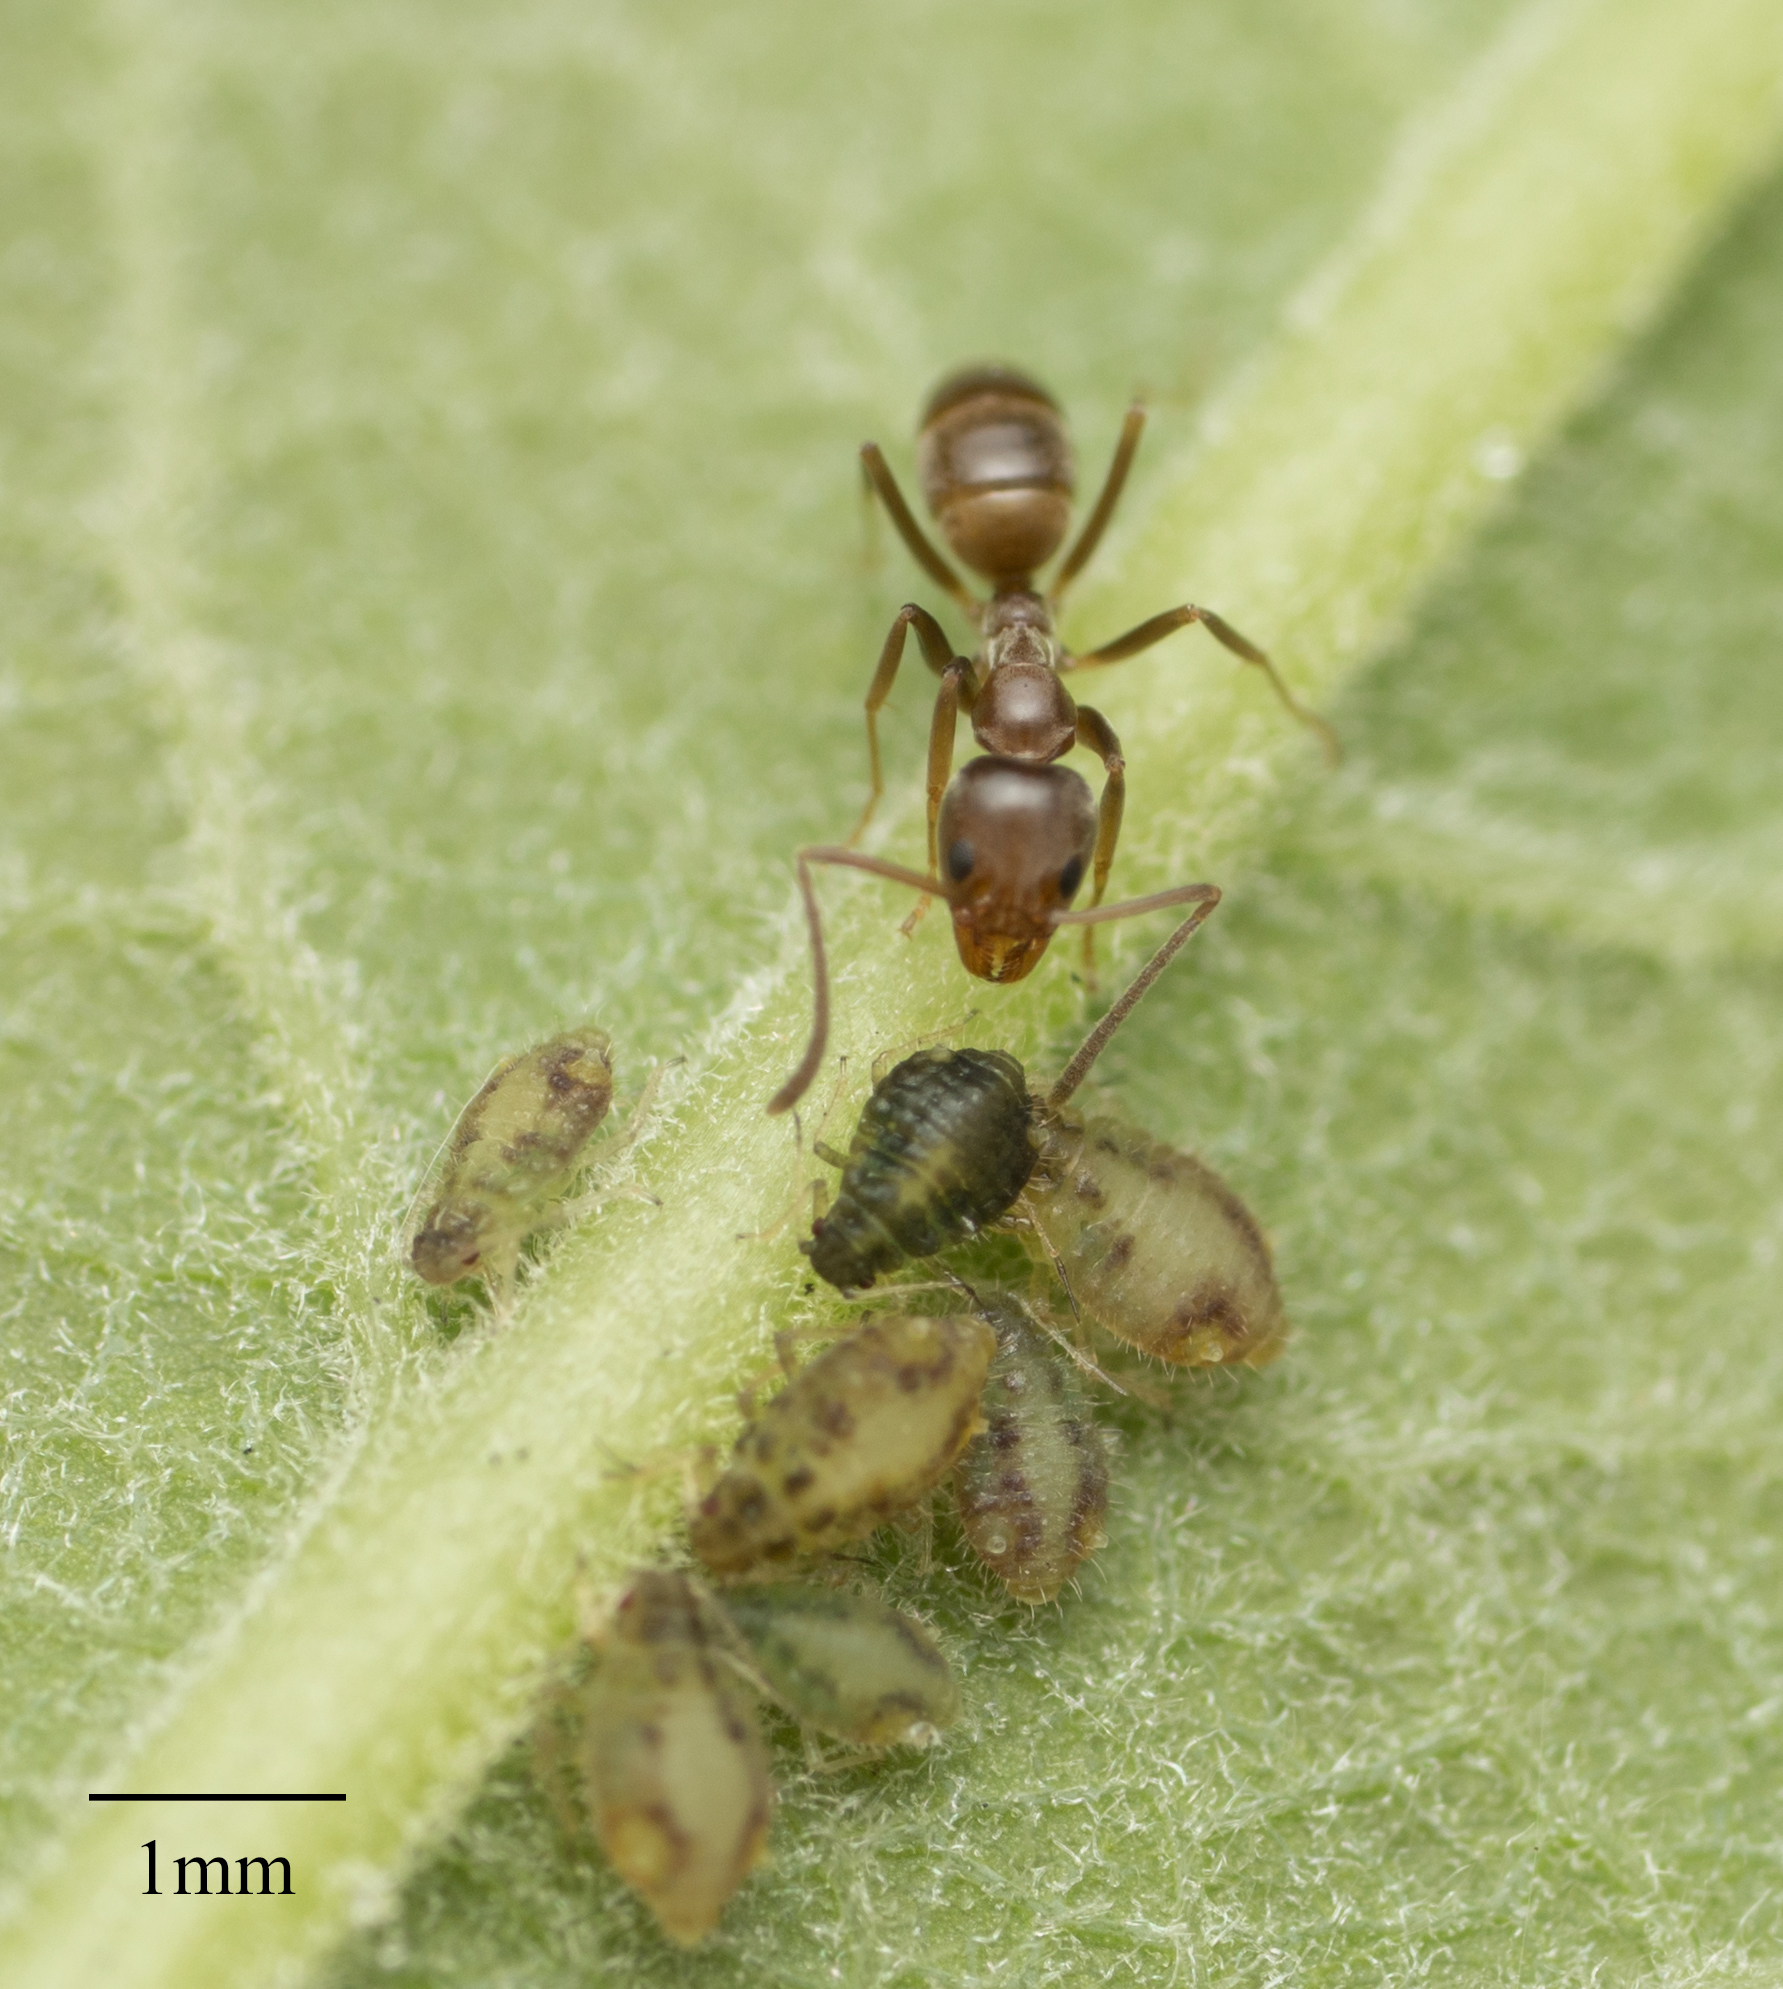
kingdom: Animalia
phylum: Arthropoda
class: Insecta
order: Hymenoptera
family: Formicidae
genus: Linepithema
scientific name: Linepithema humile
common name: Argentine ant
